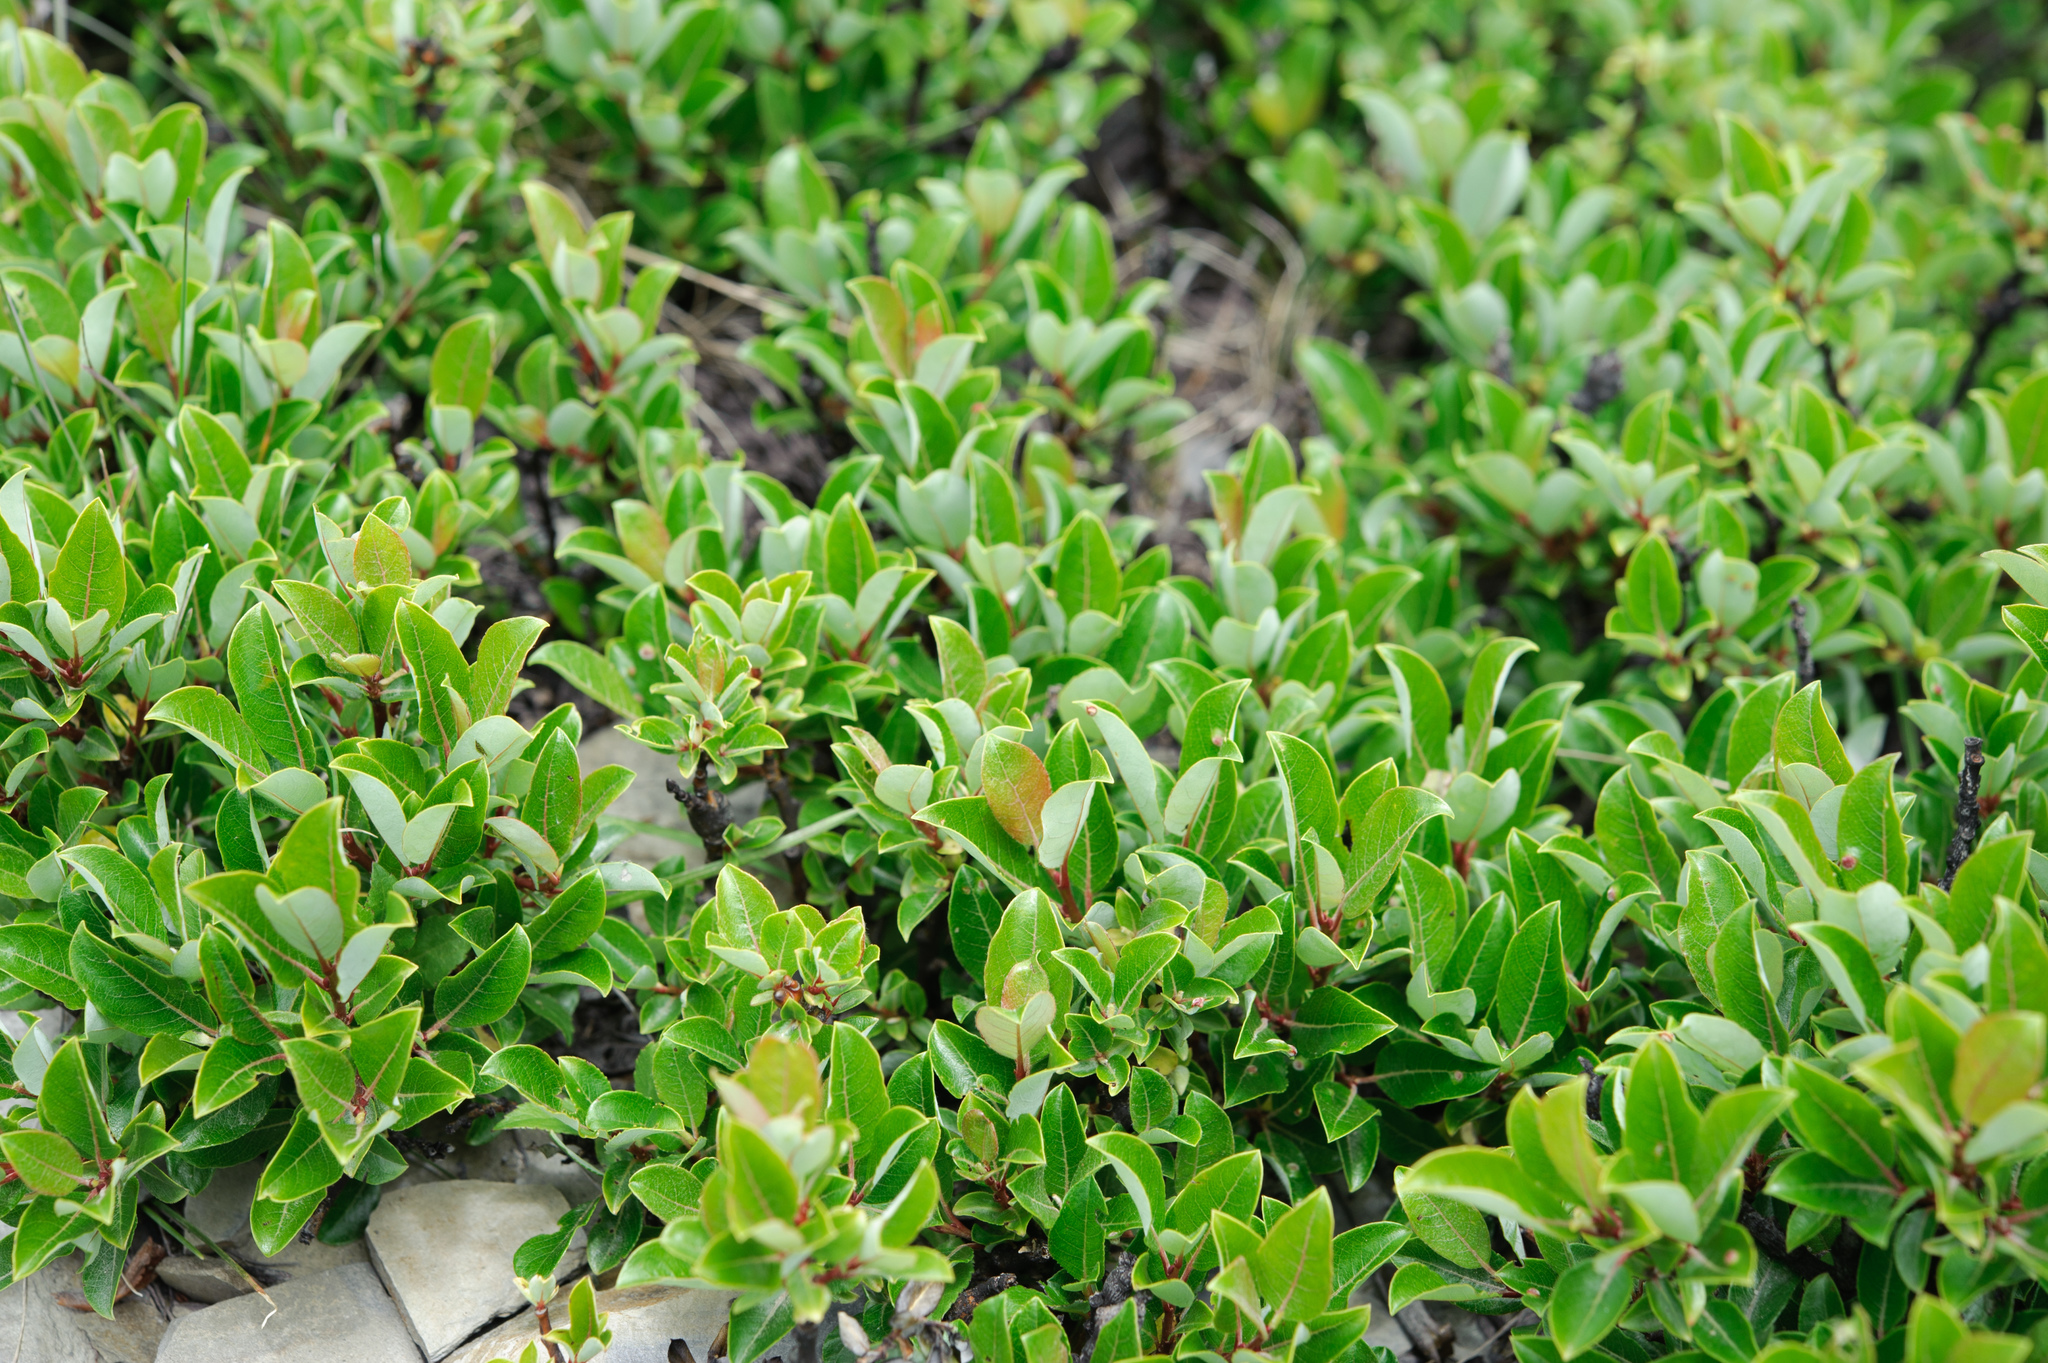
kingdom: Plantae
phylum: Tracheophyta
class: Magnoliopsida
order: Malpighiales
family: Salicaceae
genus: Salix
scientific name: Salix taiwanalpina
